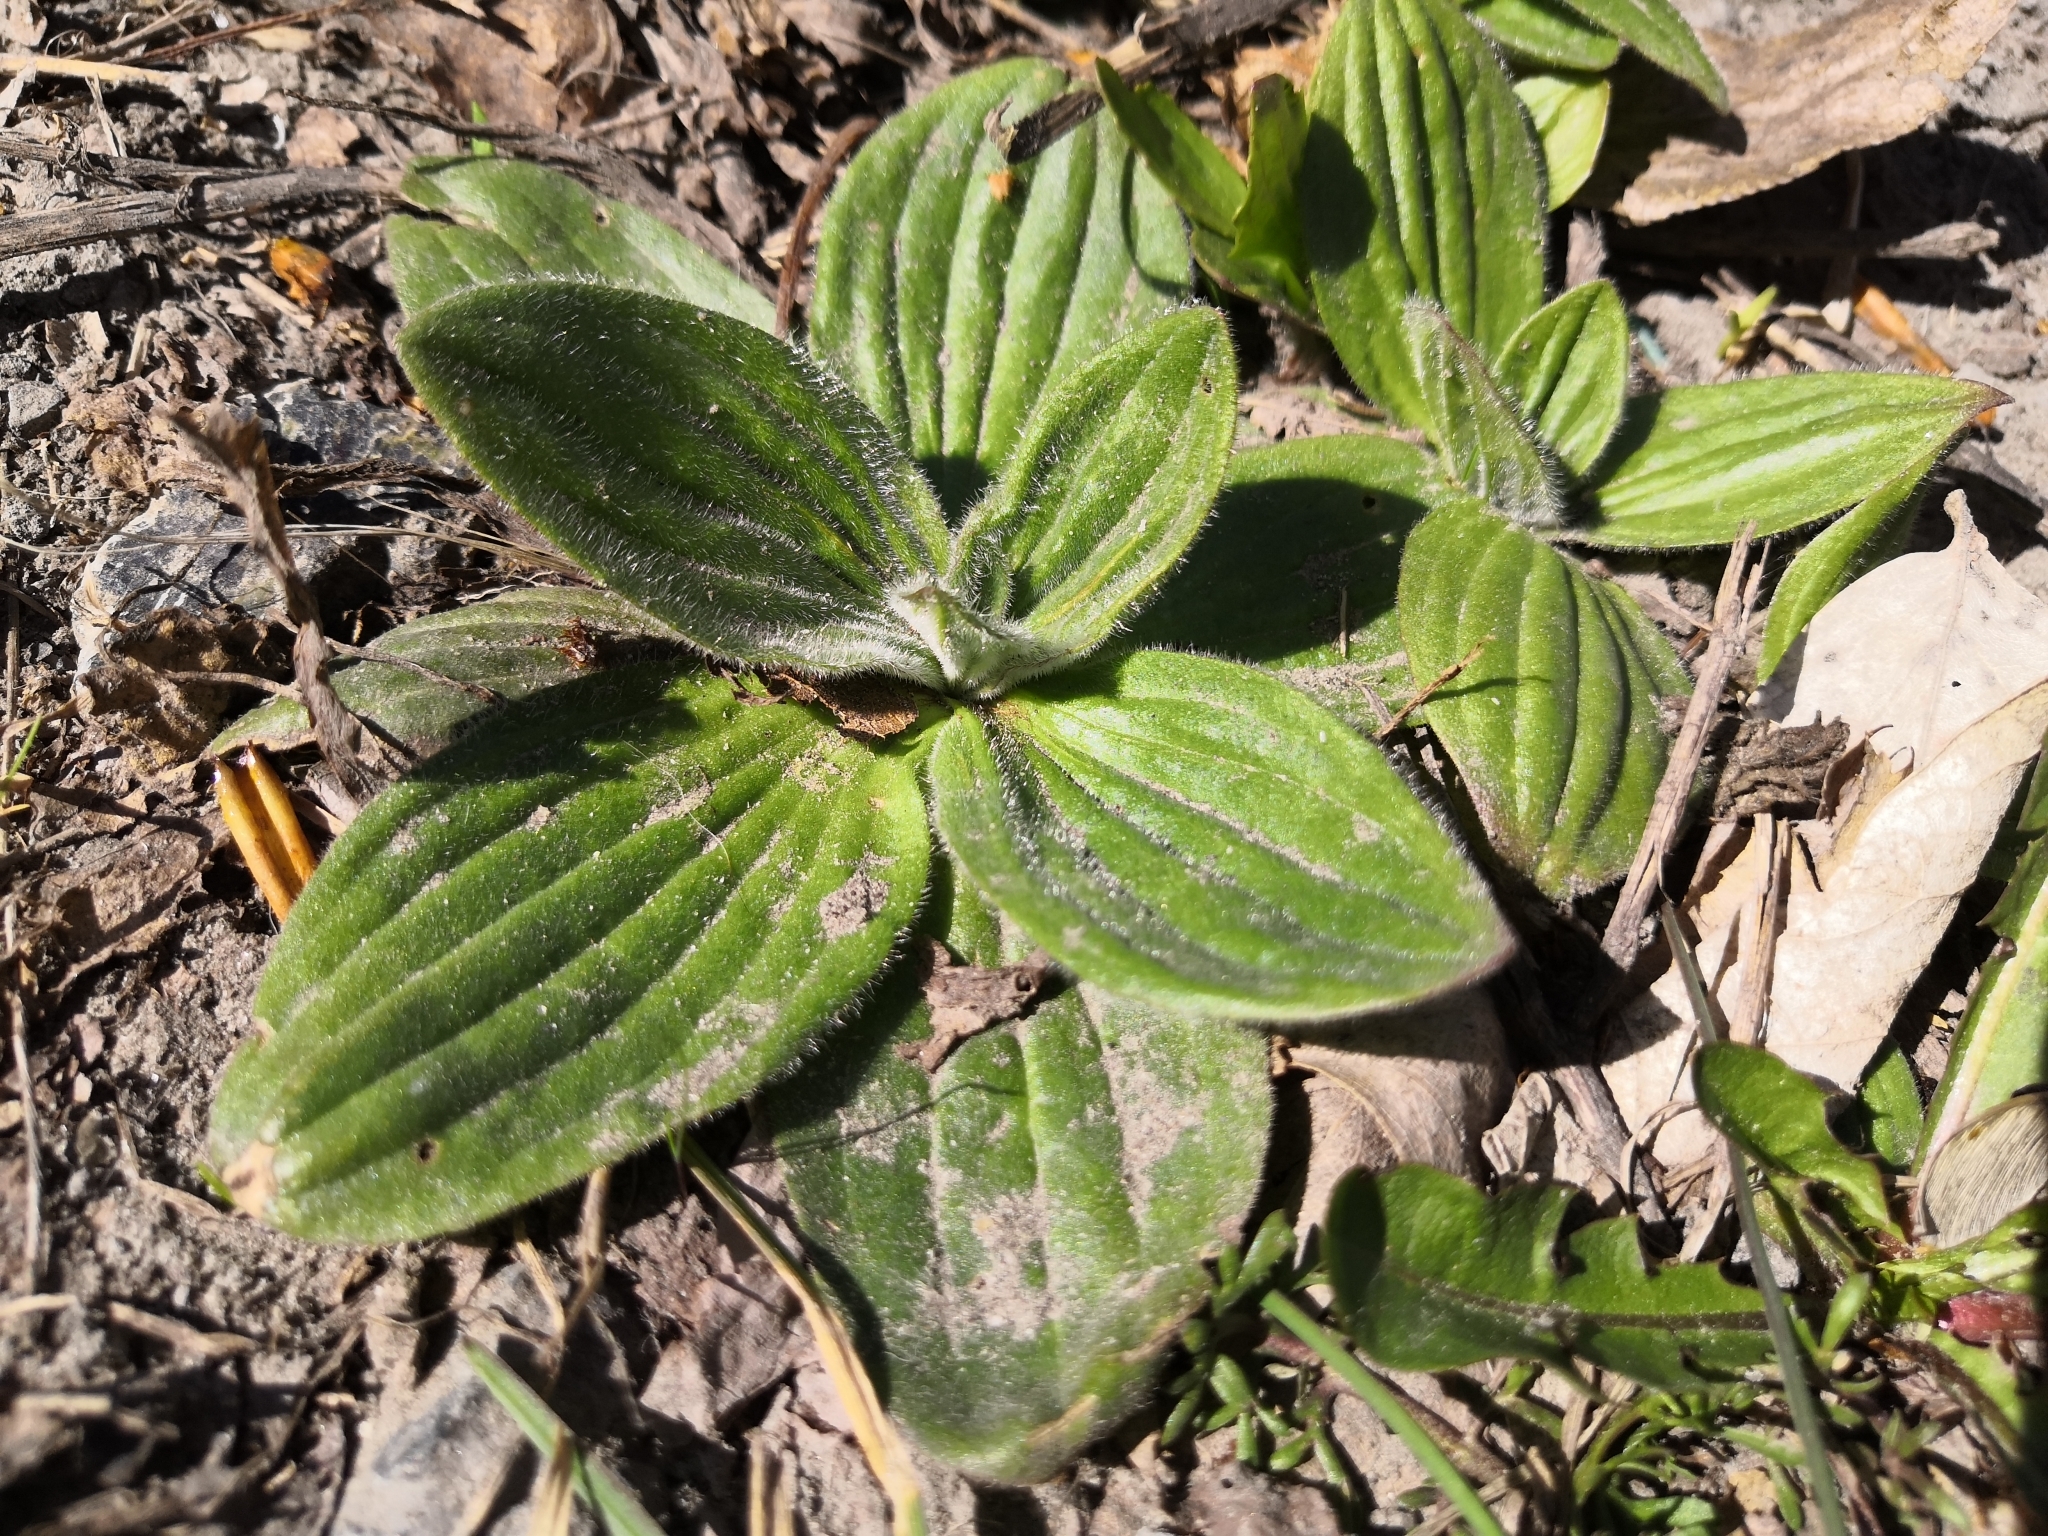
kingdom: Plantae
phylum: Tracheophyta
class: Magnoliopsida
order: Lamiales
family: Plantaginaceae
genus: Plantago
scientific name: Plantago media
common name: Hoary plantain
